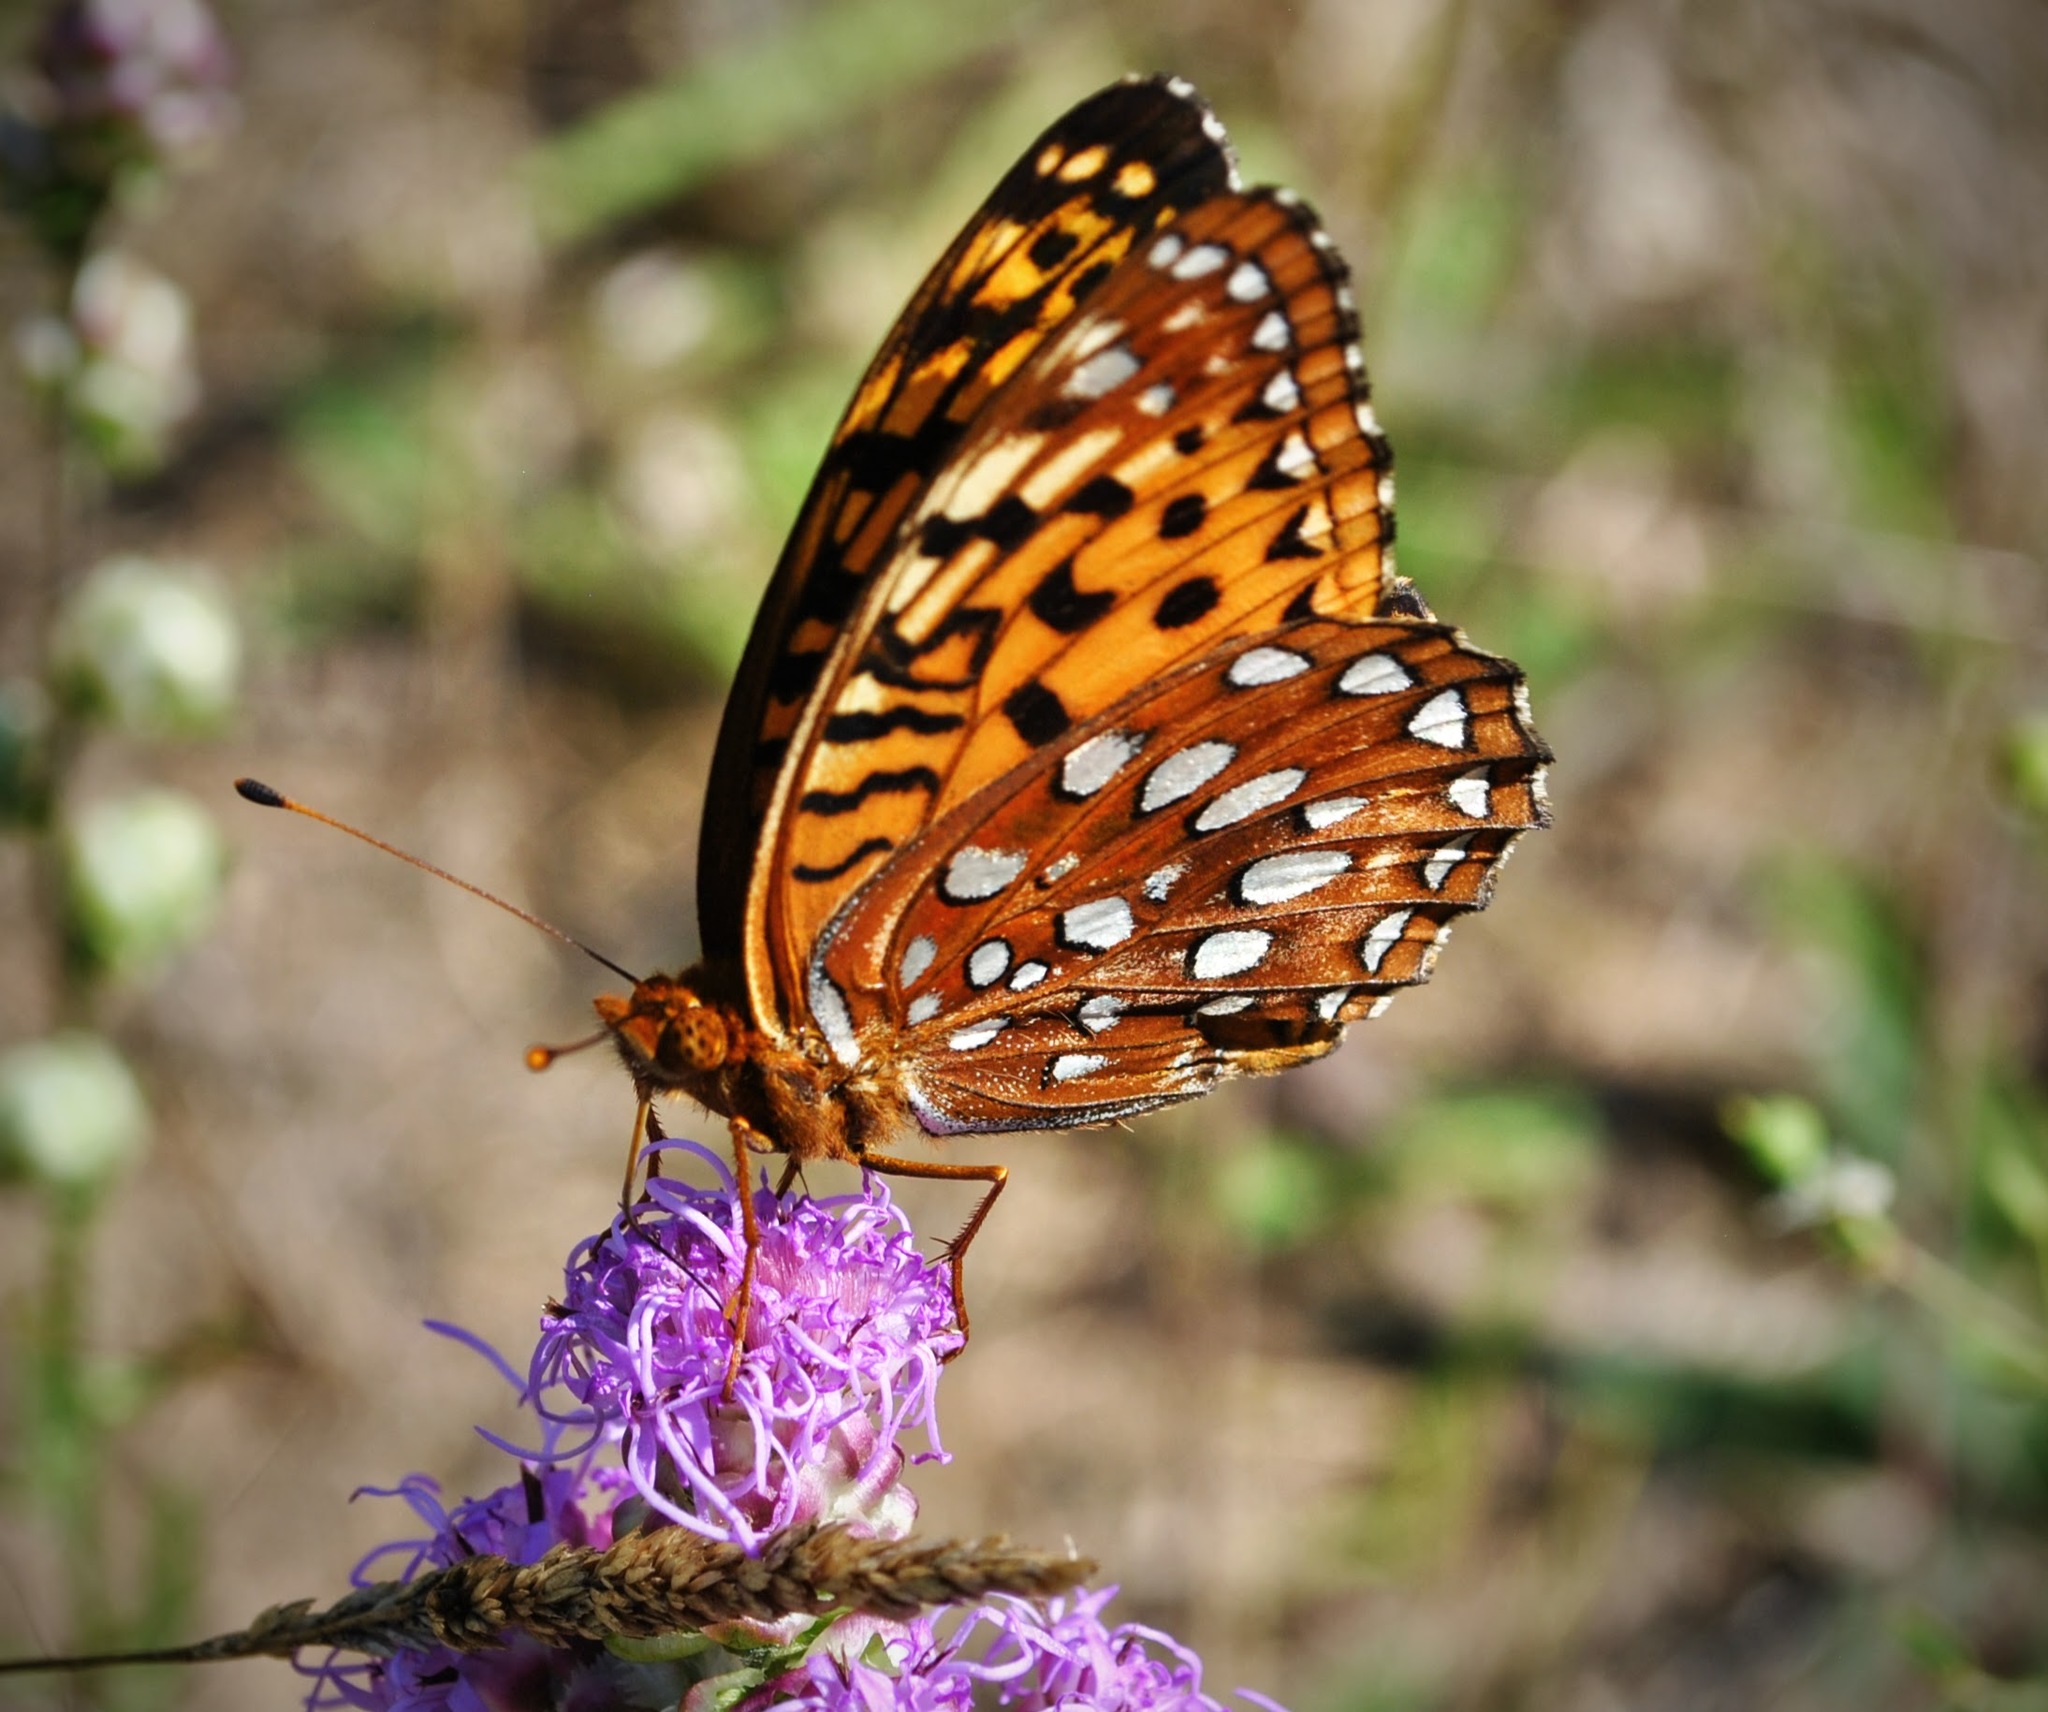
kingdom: Animalia
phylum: Arthropoda
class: Insecta
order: Lepidoptera
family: Nymphalidae
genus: Speyeria
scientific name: Speyeria aphrodite
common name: Aphrodite friitllary
